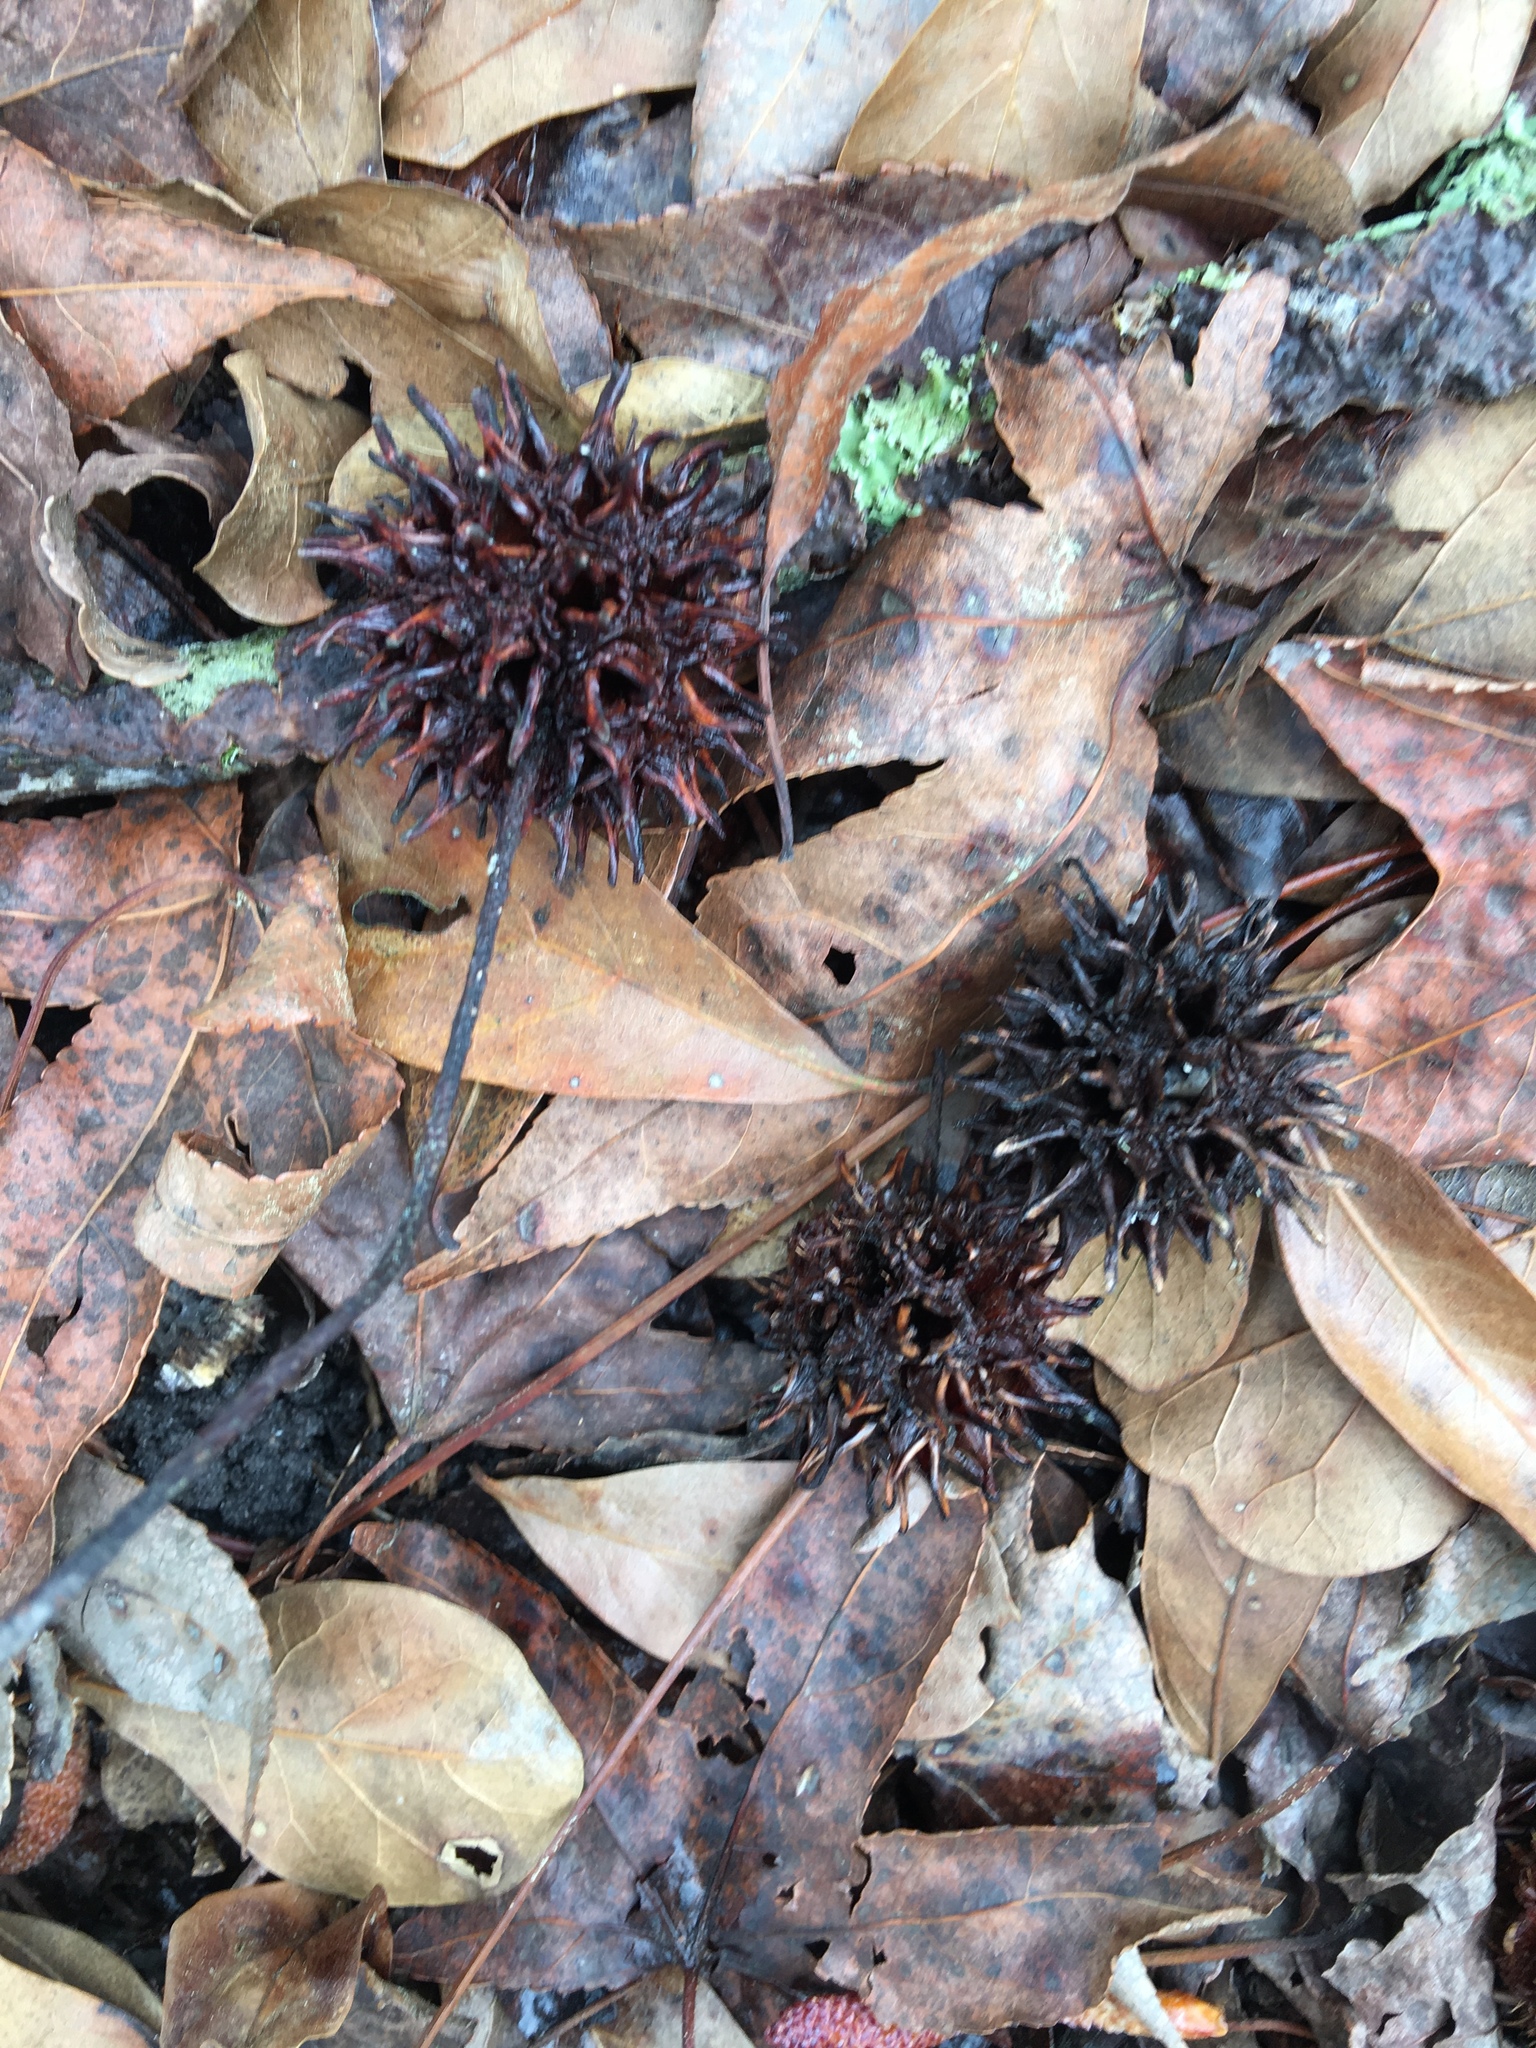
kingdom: Plantae
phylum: Tracheophyta
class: Magnoliopsida
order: Saxifragales
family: Altingiaceae
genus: Liquidambar
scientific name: Liquidambar styraciflua
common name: Sweet gum
